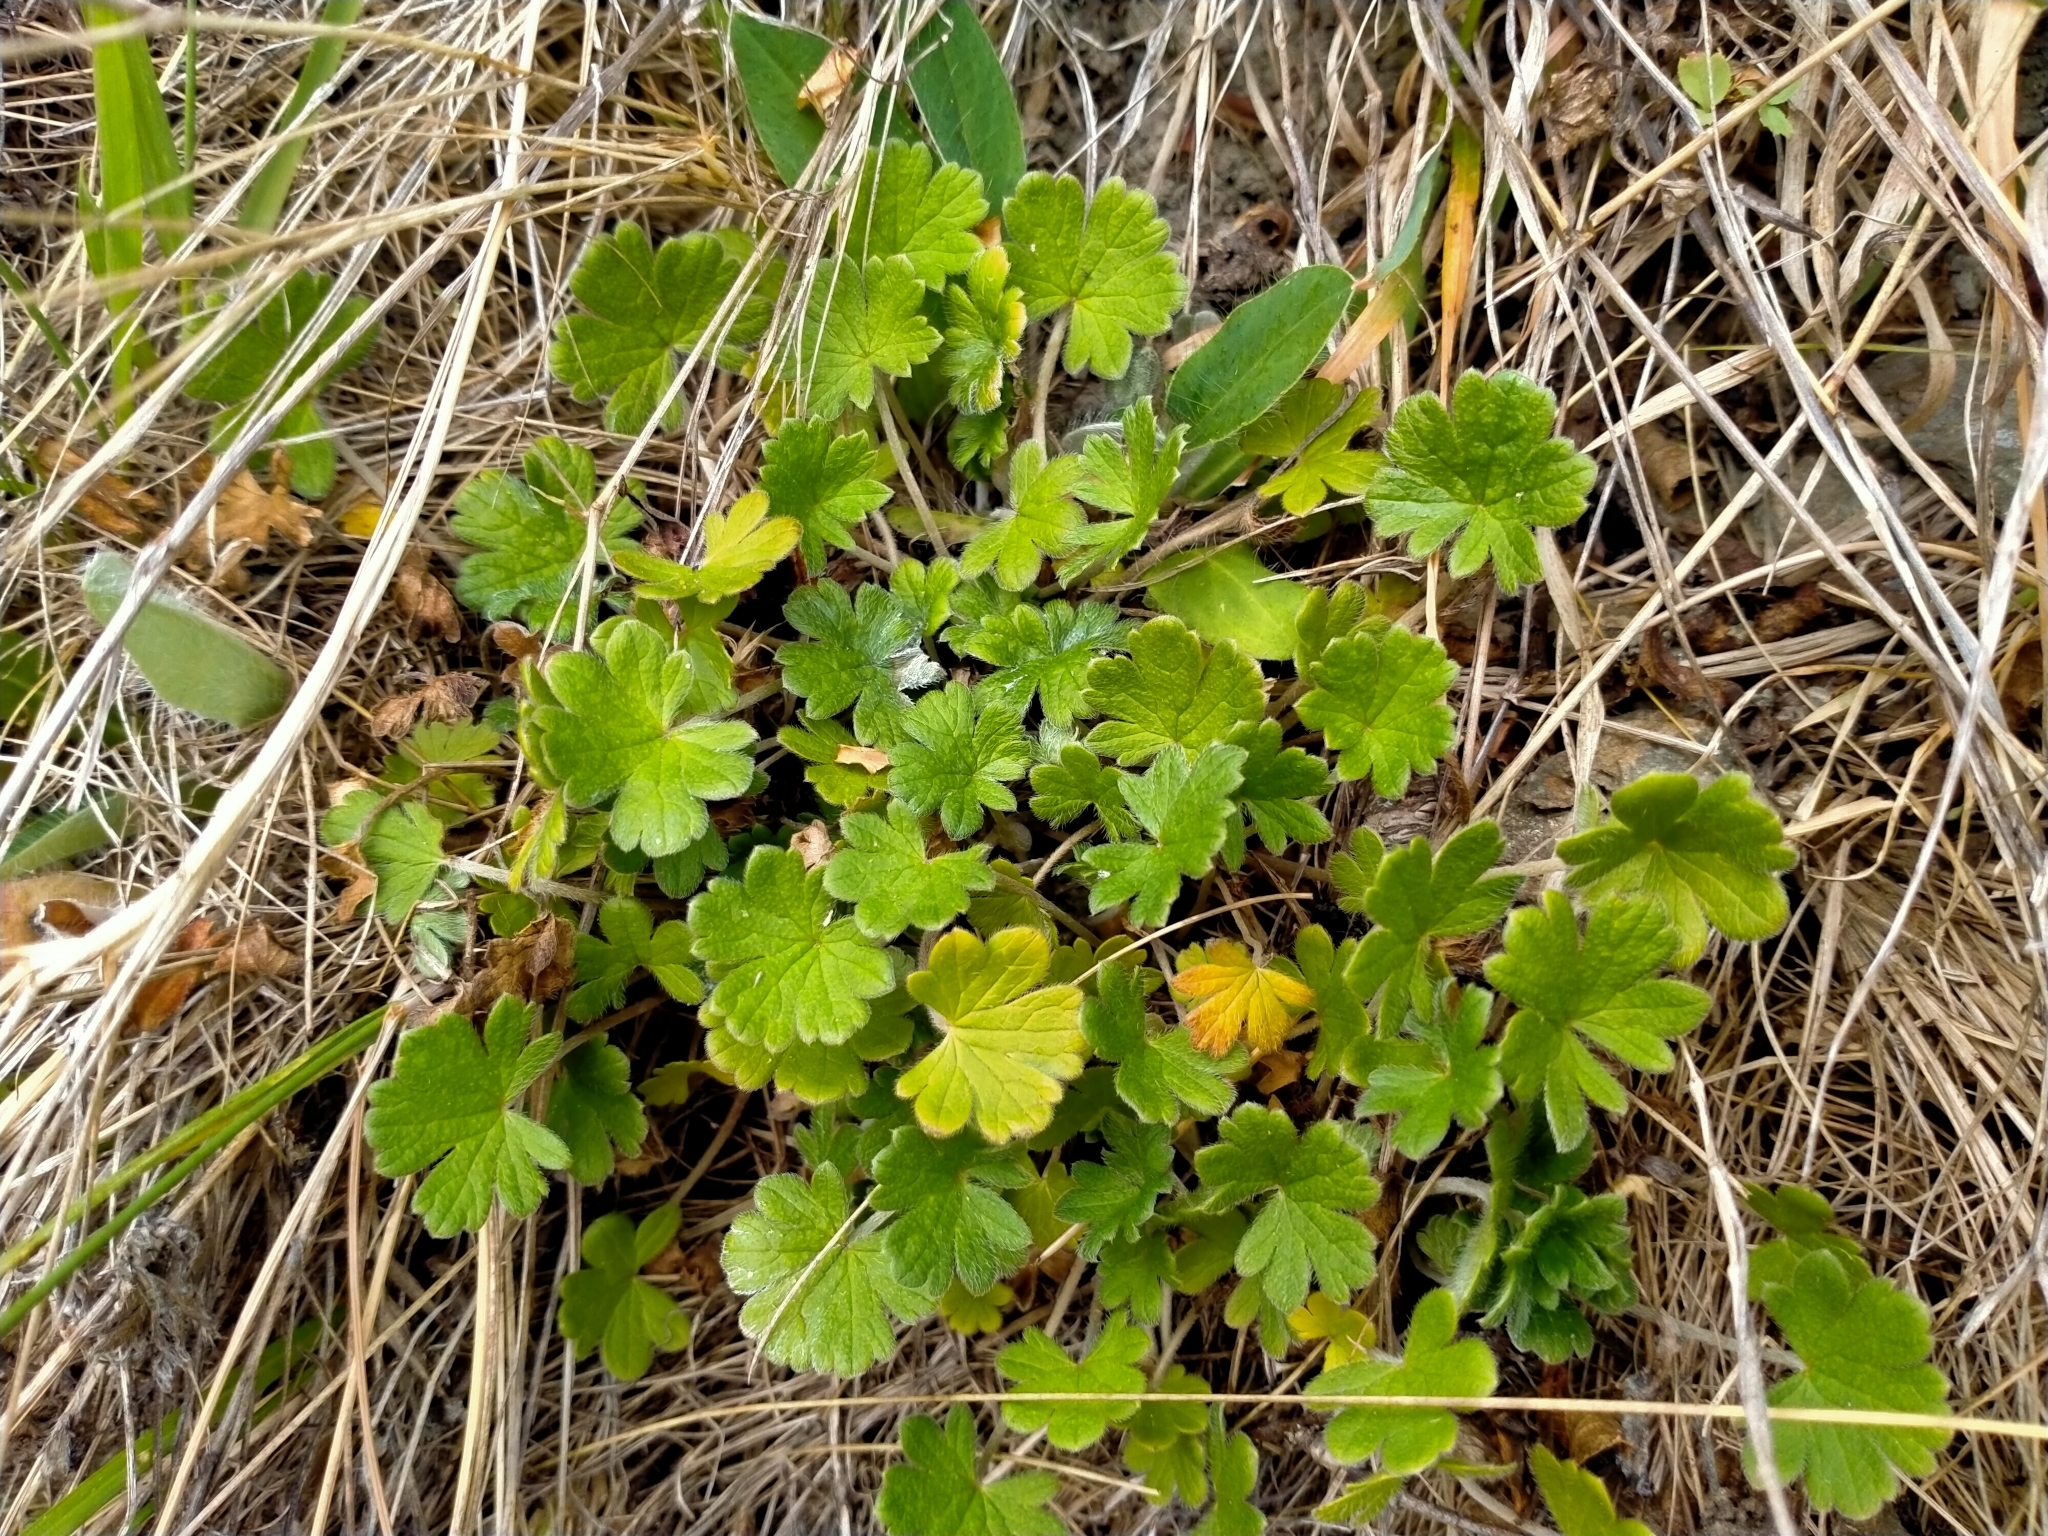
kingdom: Plantae
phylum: Tracheophyta
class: Magnoliopsida
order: Geraniales
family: Geraniaceae
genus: Geranium
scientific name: Geranium brevicaule
